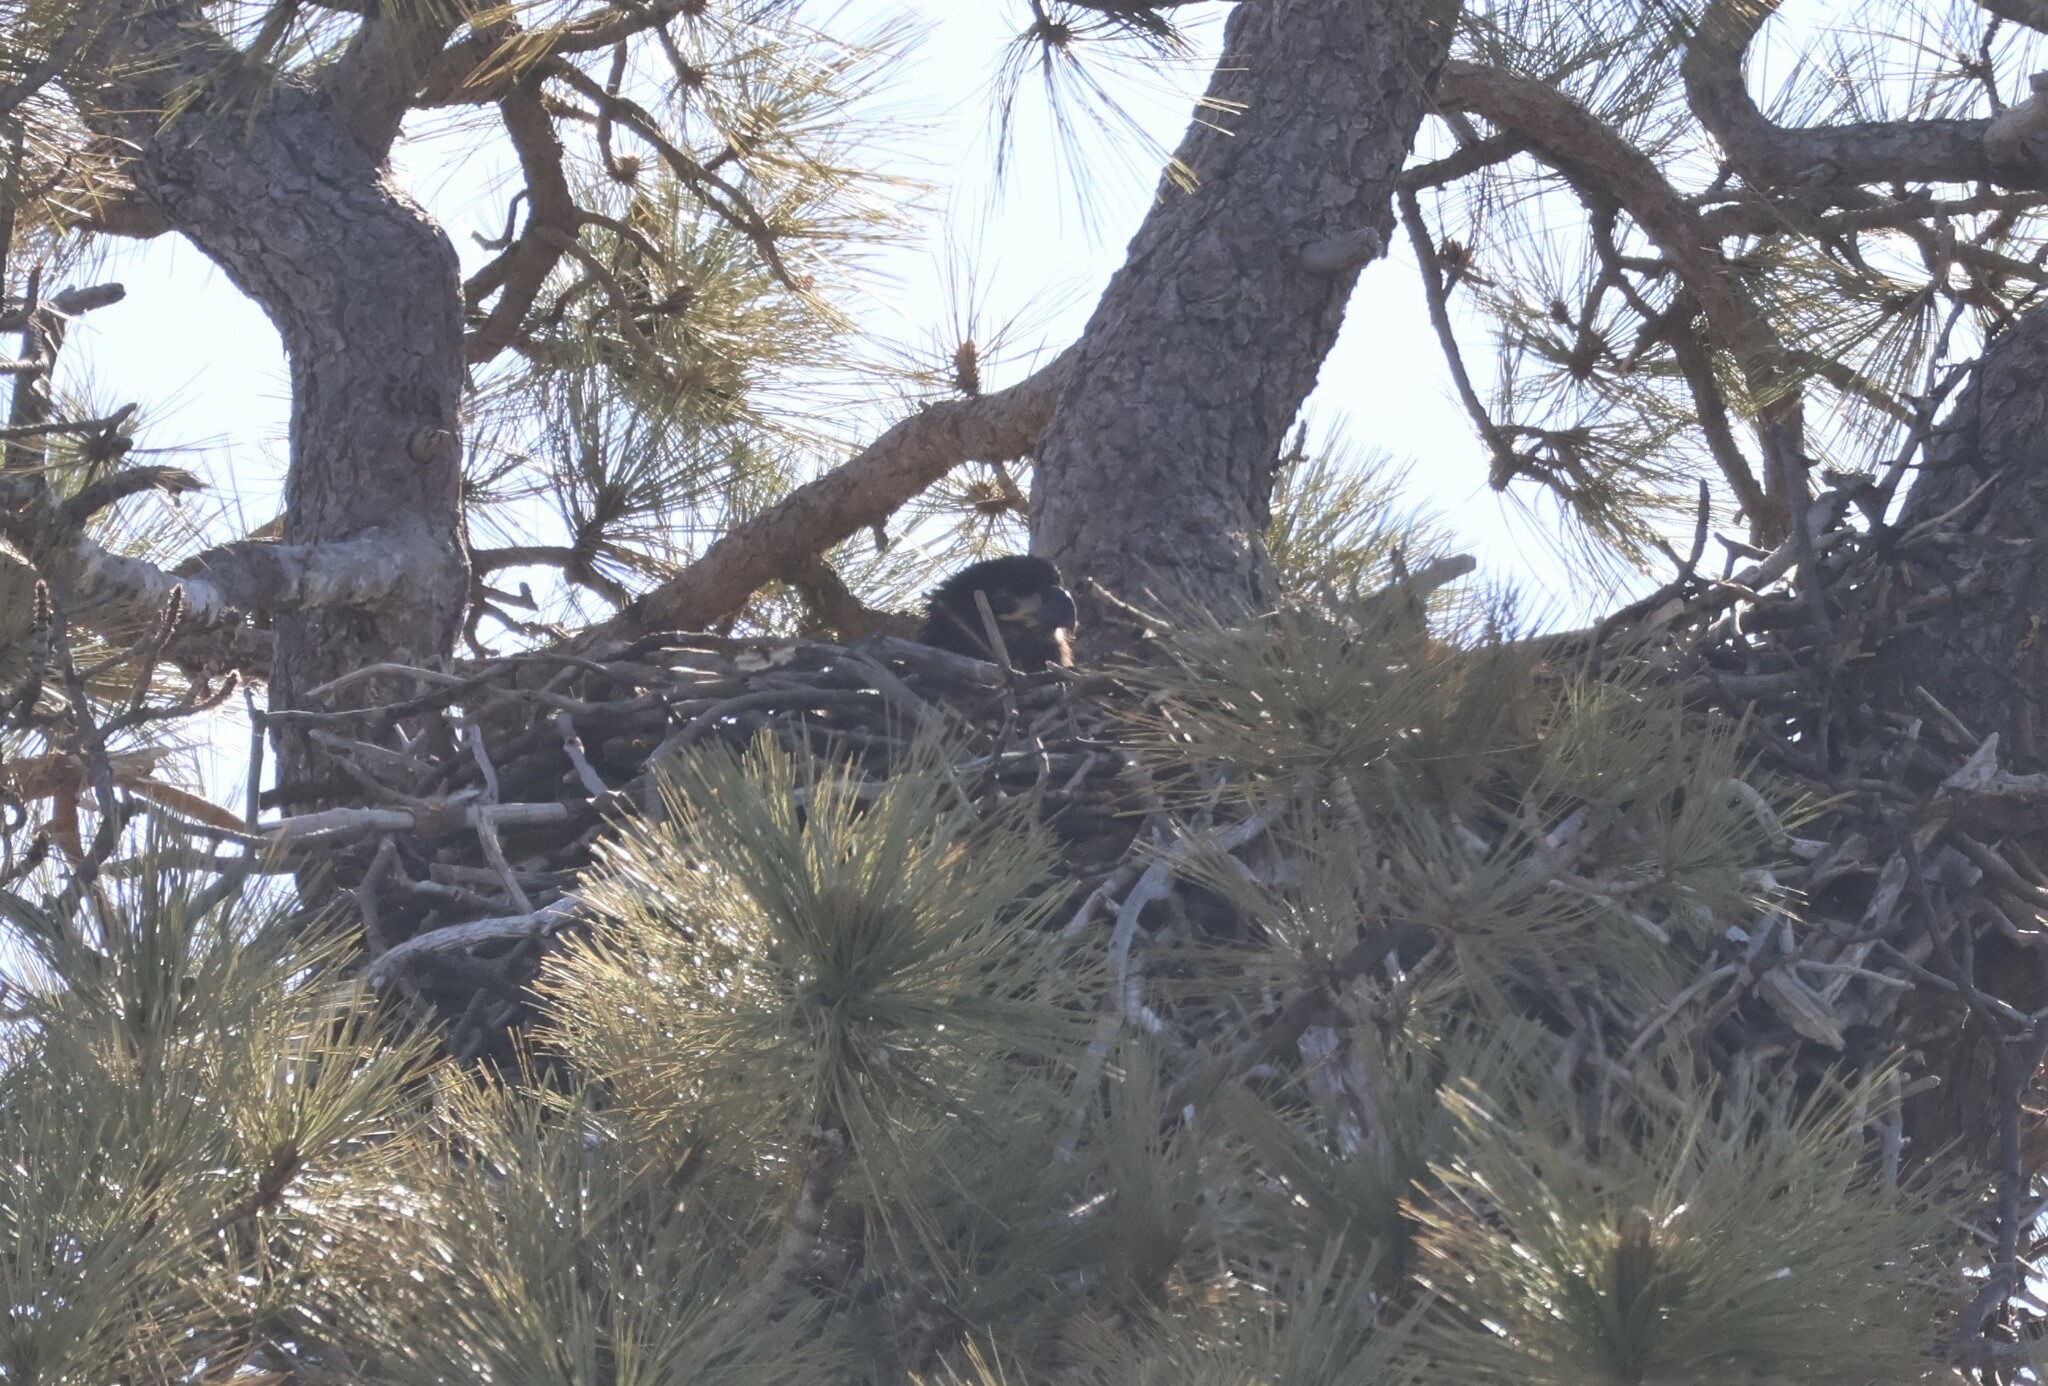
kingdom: Animalia
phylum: Chordata
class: Aves
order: Accipitriformes
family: Accipitridae
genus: Haliaeetus
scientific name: Haliaeetus leucocephalus
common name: Bald eagle
